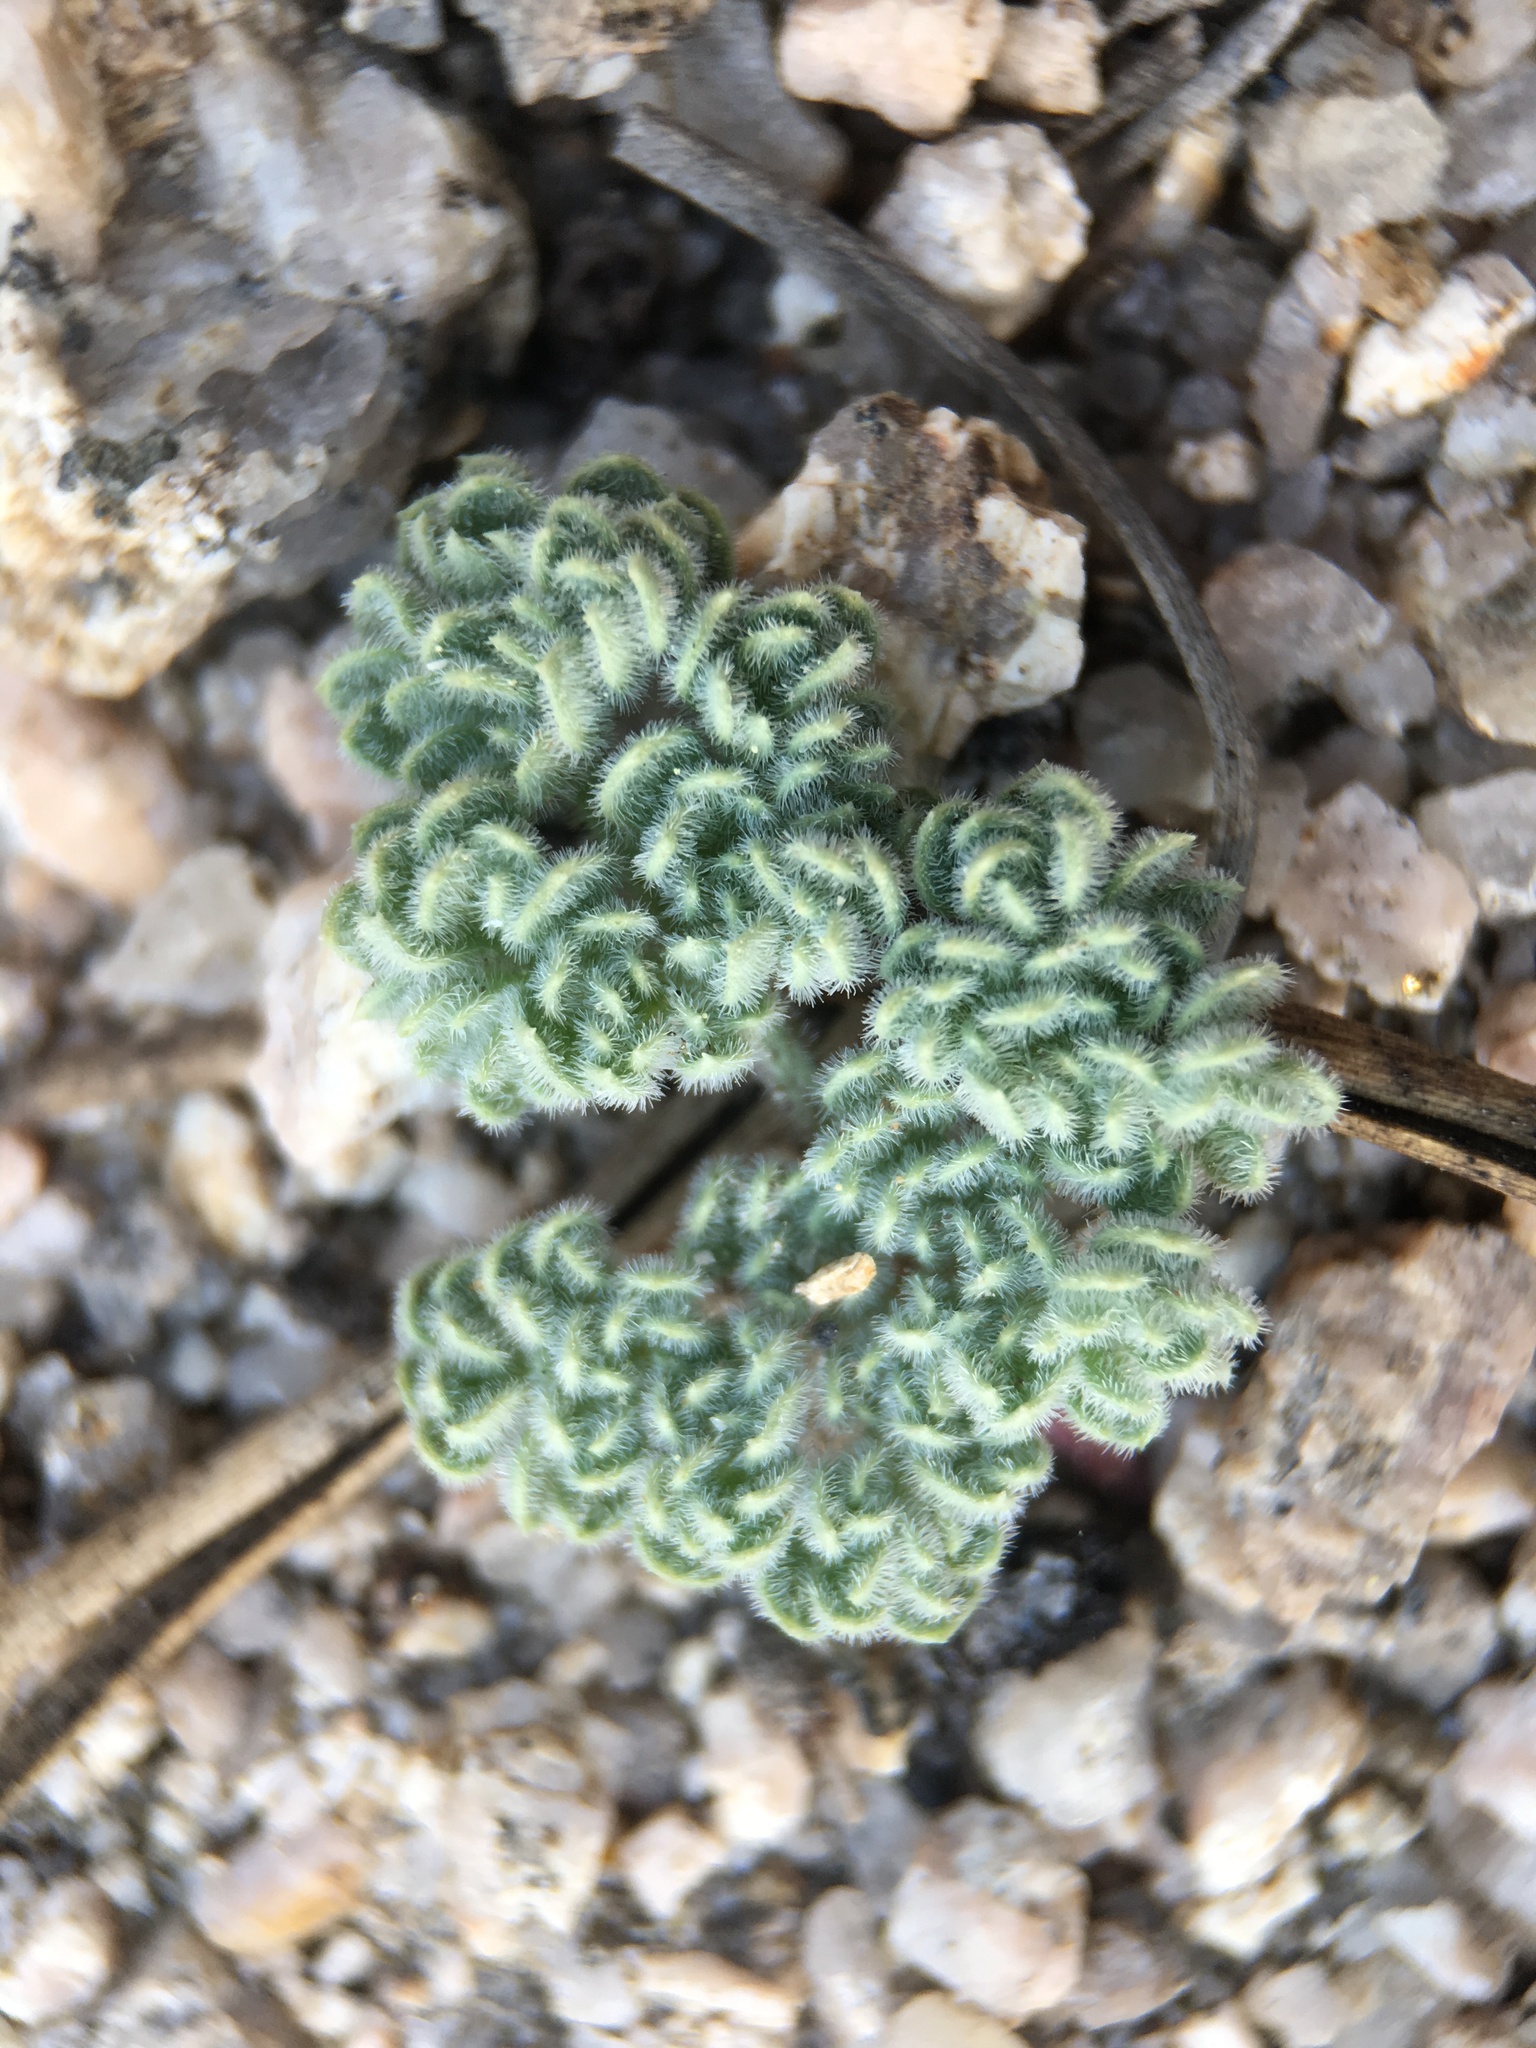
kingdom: Plantae
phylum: Tracheophyta
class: Magnoliopsida
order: Apiales
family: Apiaceae
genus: Oreonana
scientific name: Oreonana clementis
